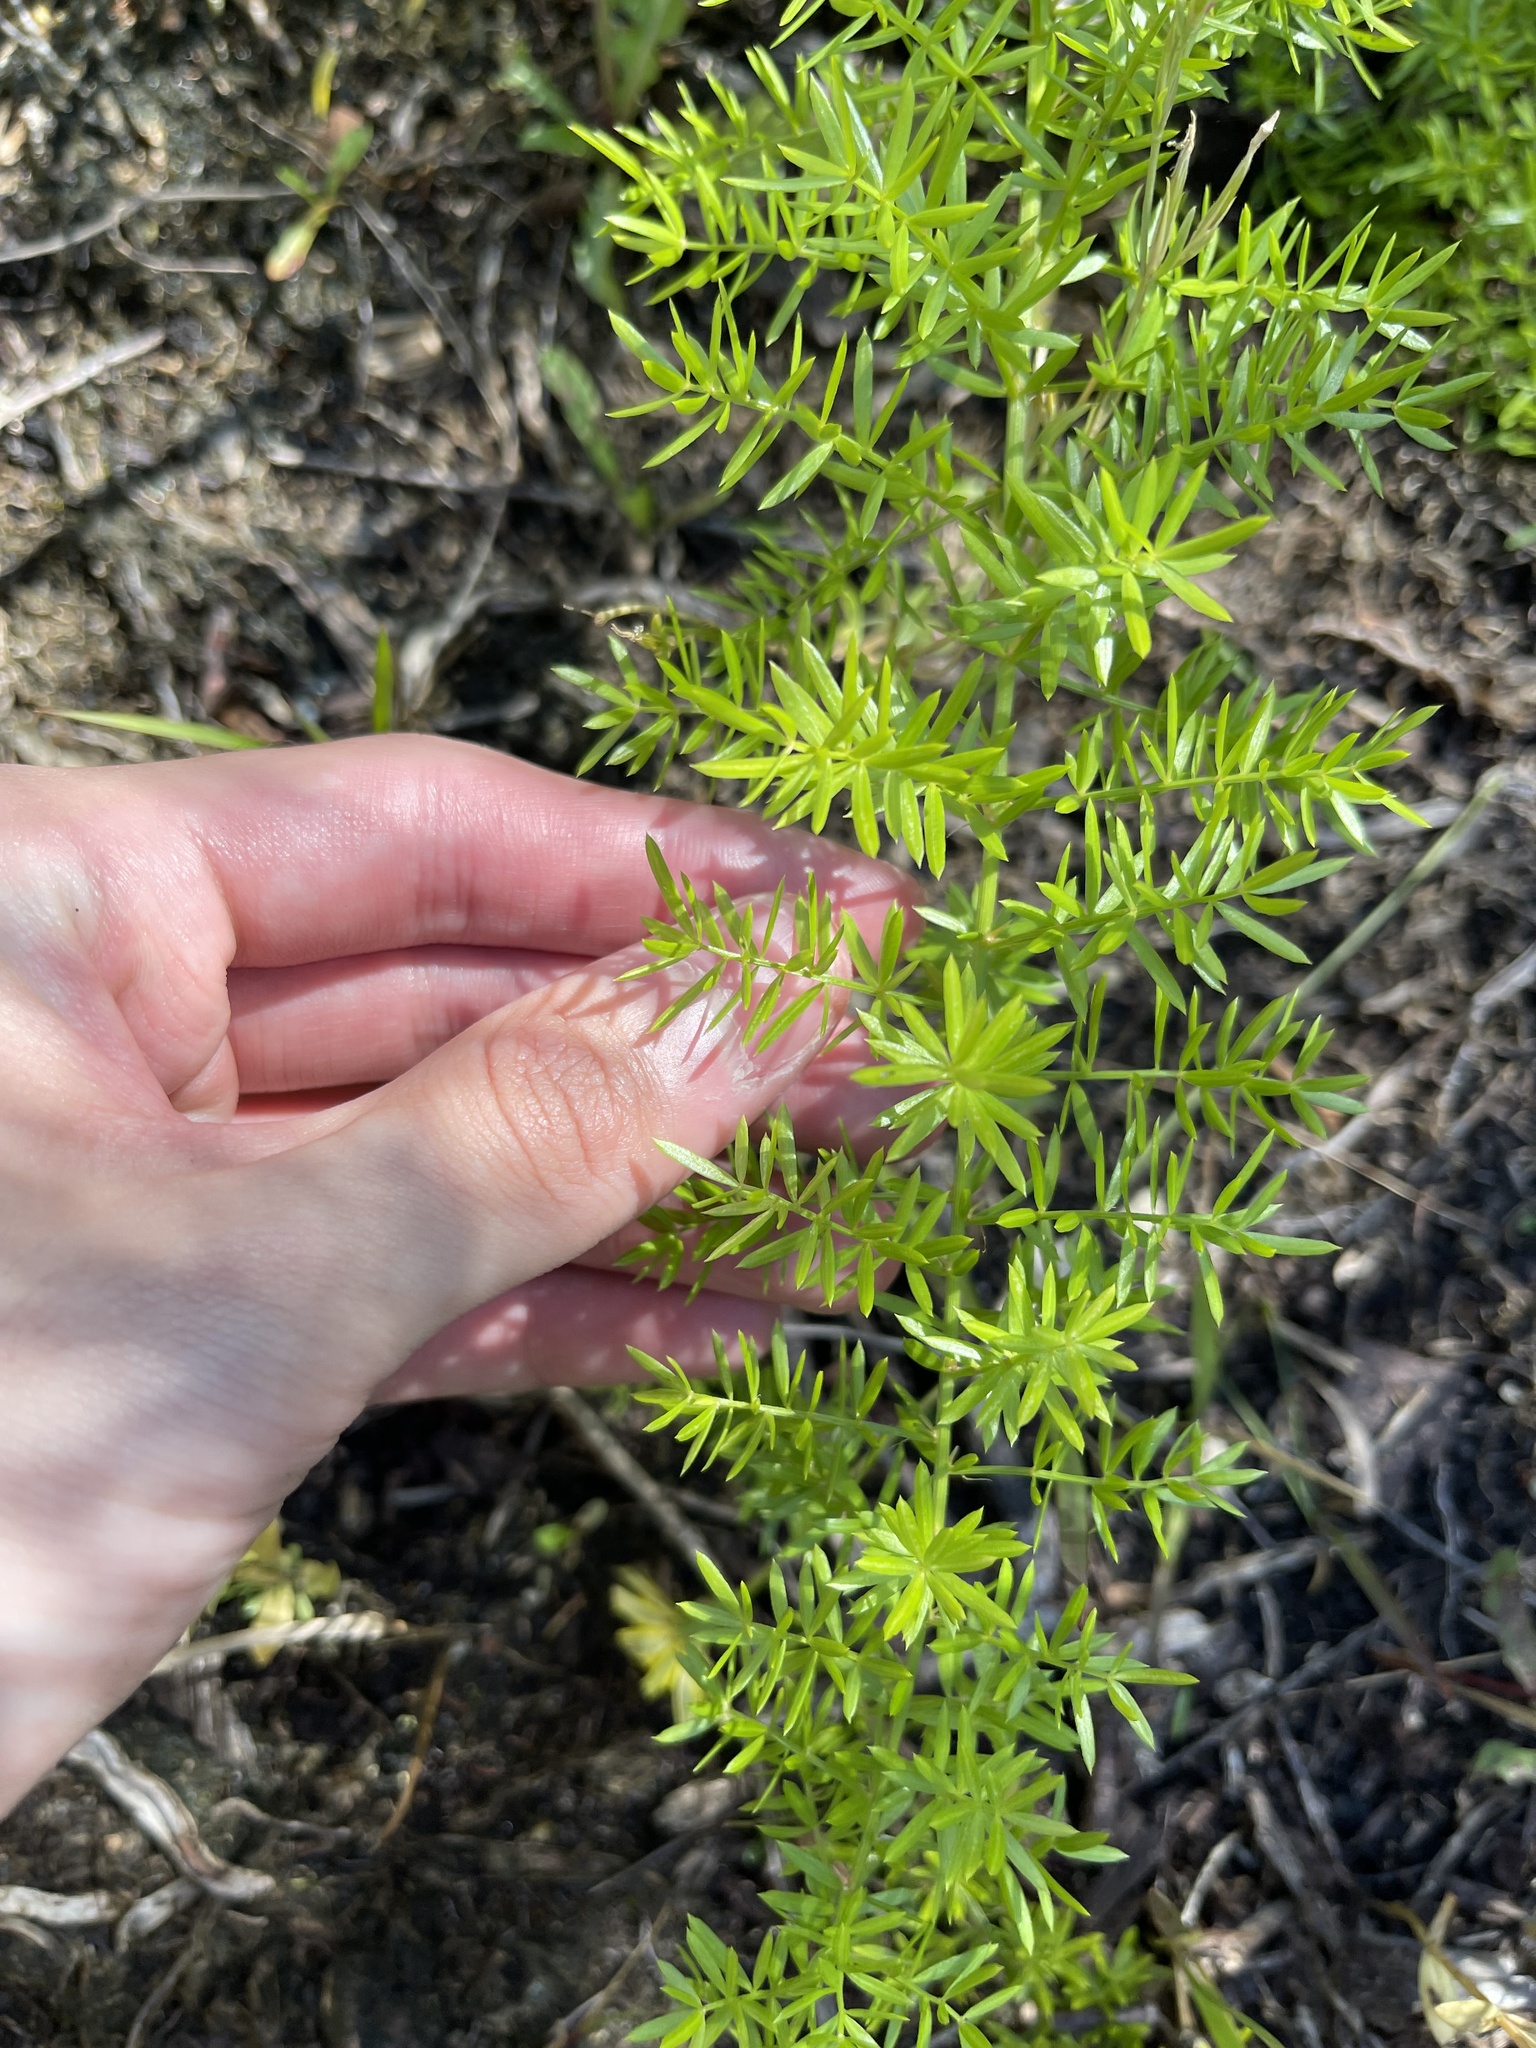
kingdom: Plantae
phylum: Tracheophyta
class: Liliopsida
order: Asparagales
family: Asparagaceae
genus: Asparagus
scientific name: Asparagus aethiopicus
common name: Sprenger's asparagus fern
